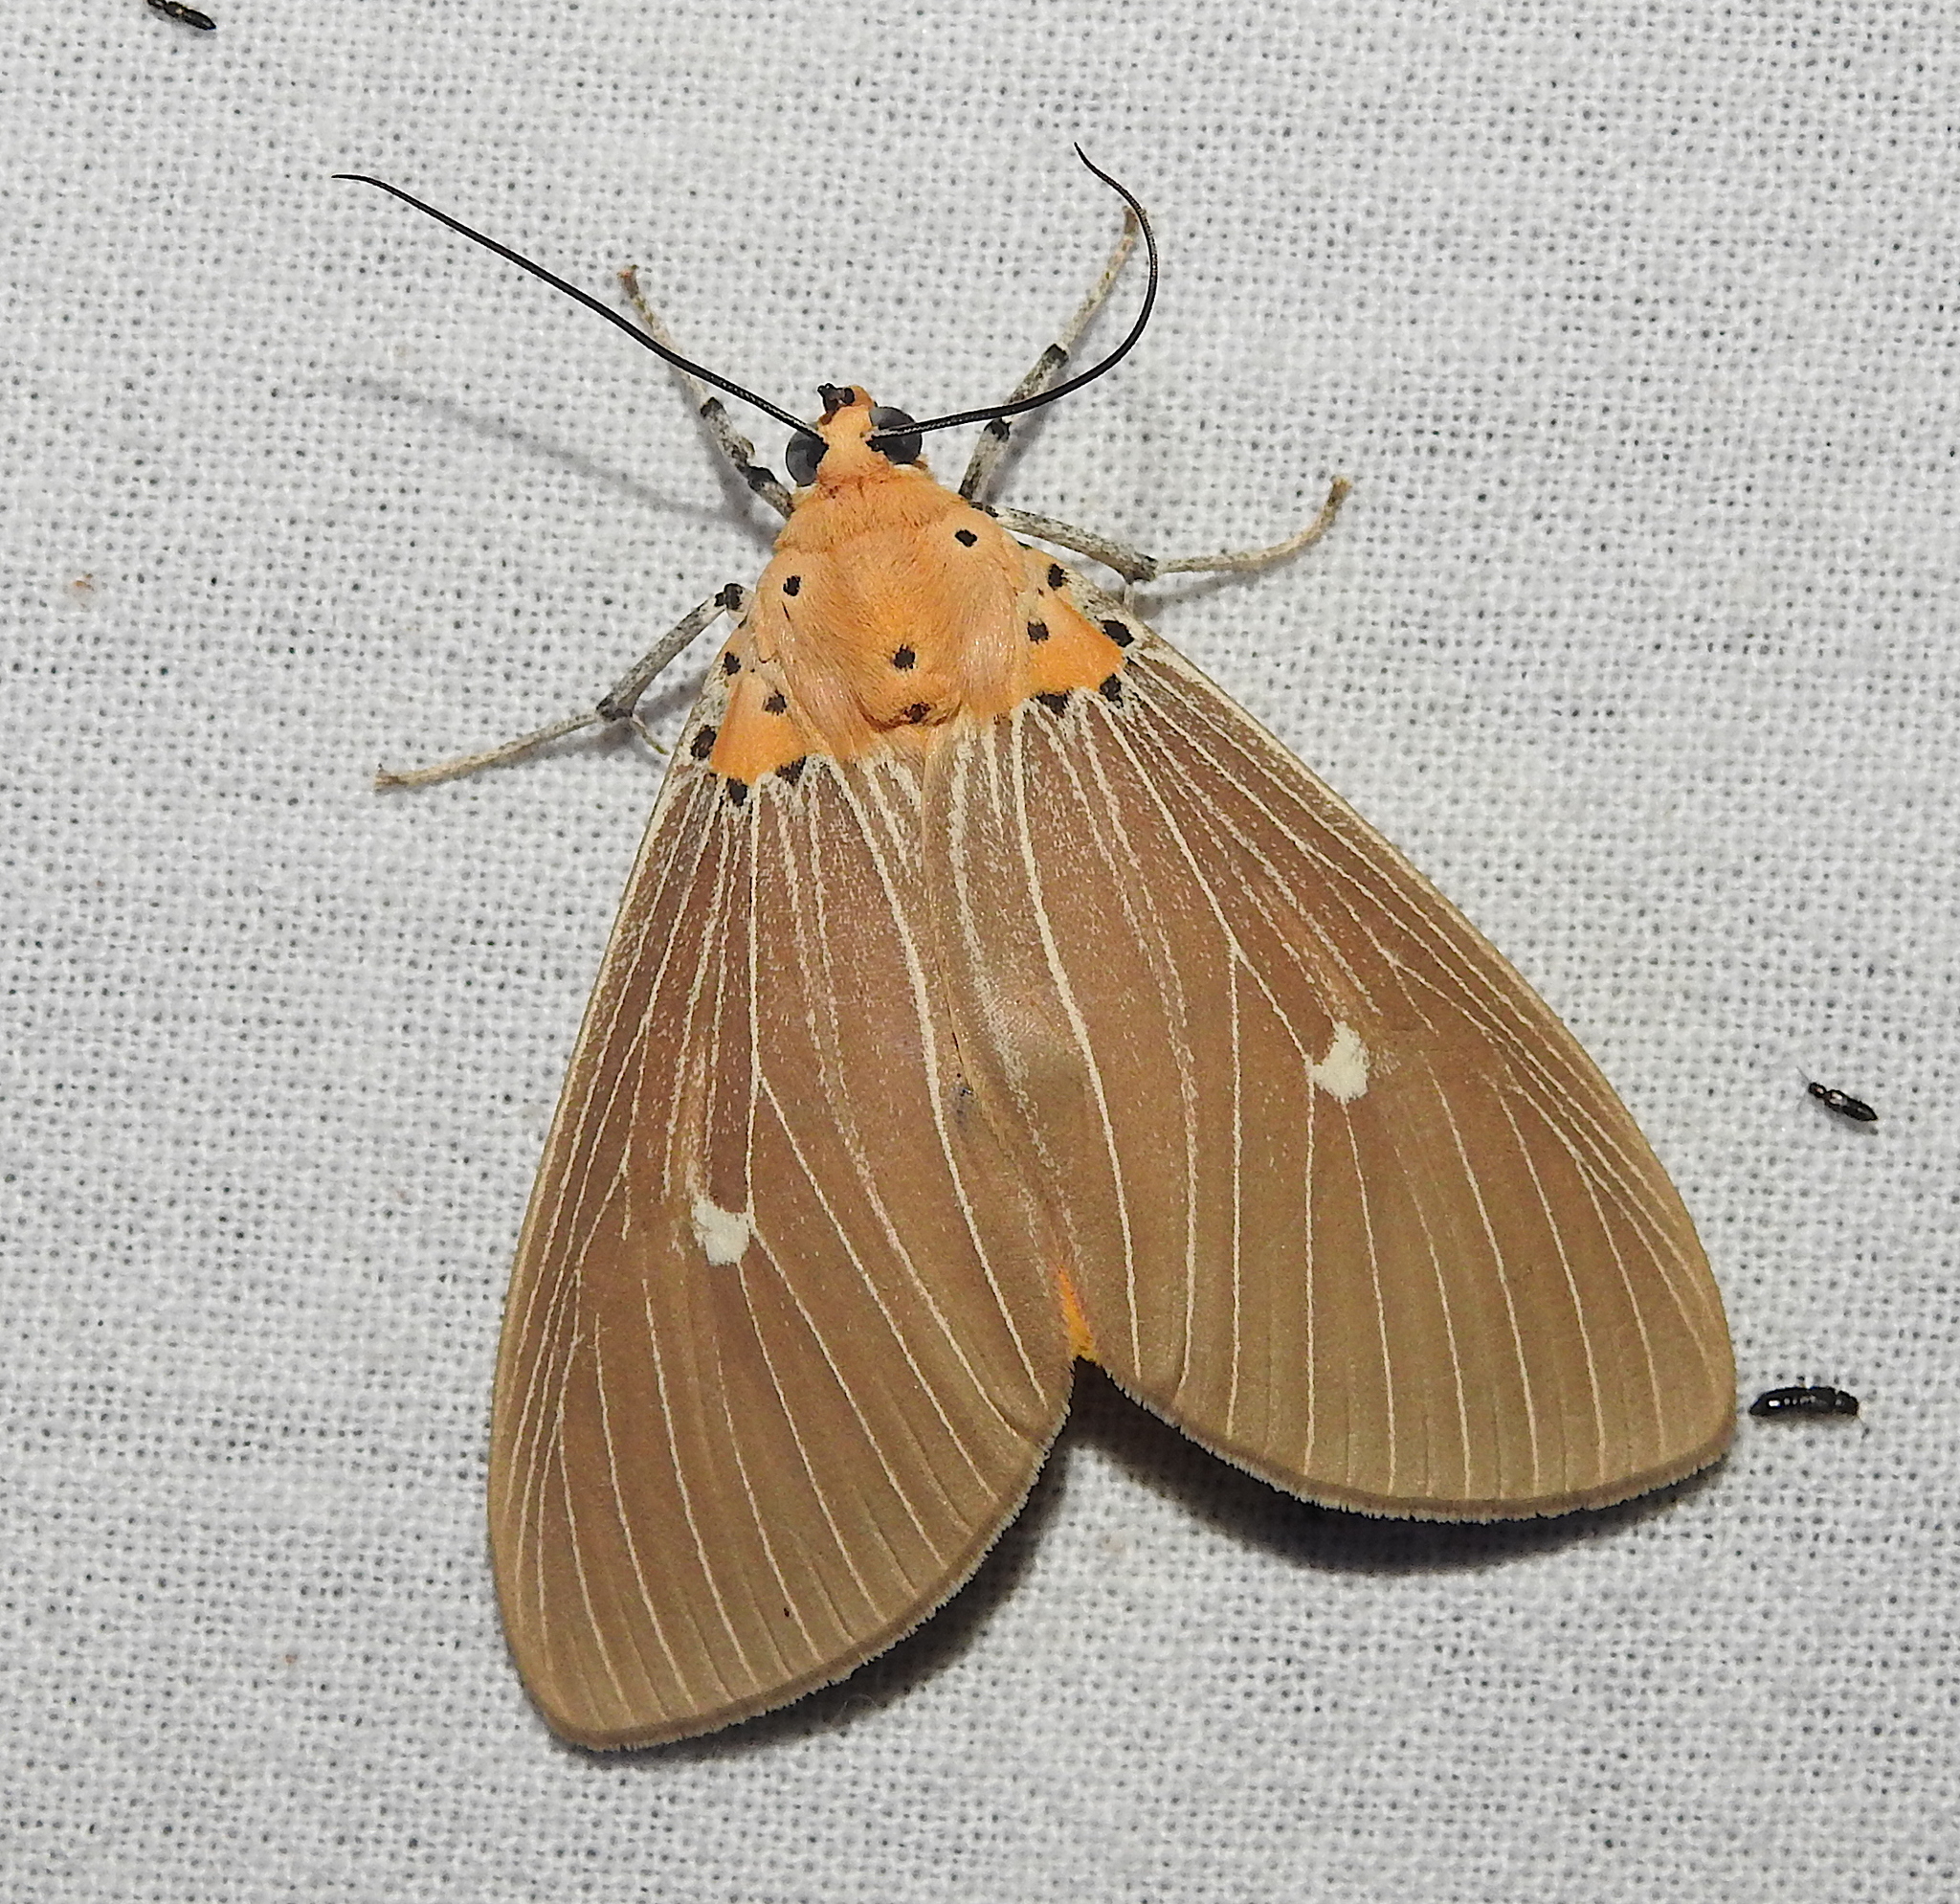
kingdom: Animalia
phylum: Arthropoda
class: Insecta
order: Lepidoptera
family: Erebidae
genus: Asota
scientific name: Asota caricae
